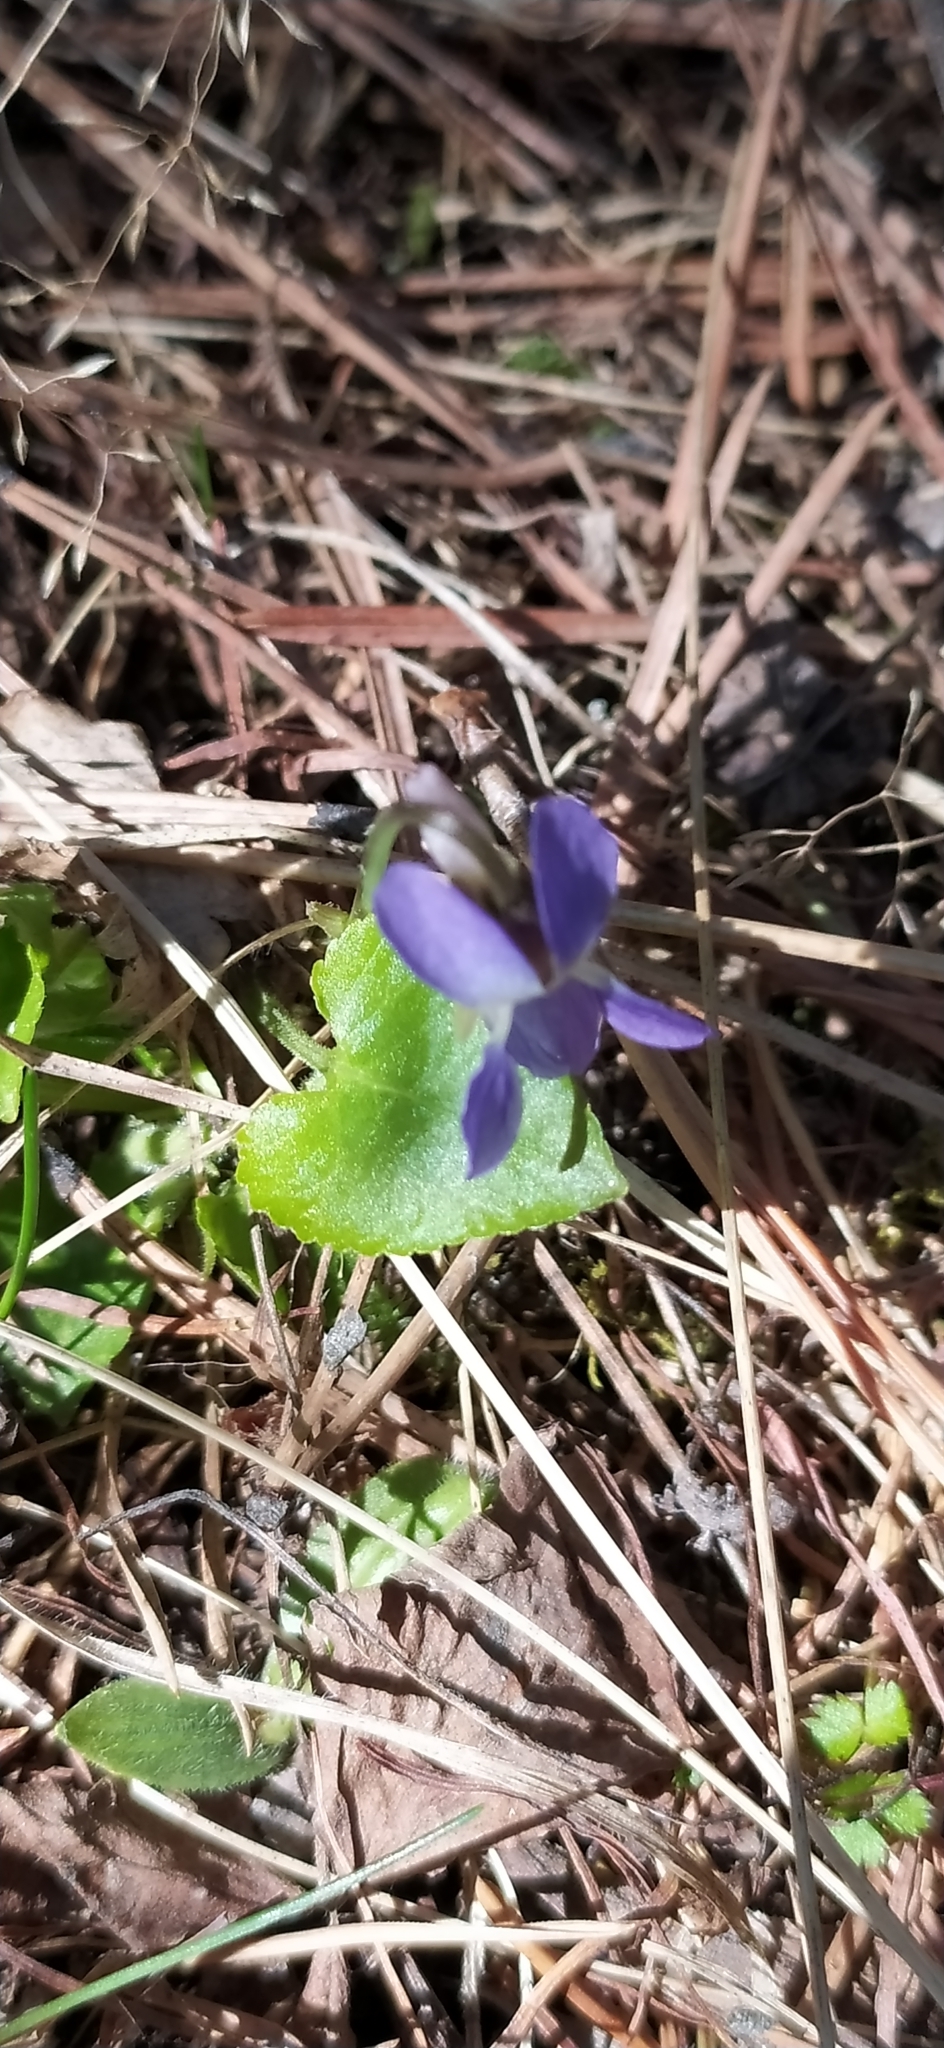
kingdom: Plantae
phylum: Tracheophyta
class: Magnoliopsida
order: Malpighiales
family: Violaceae
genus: Viola
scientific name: Viola collina
